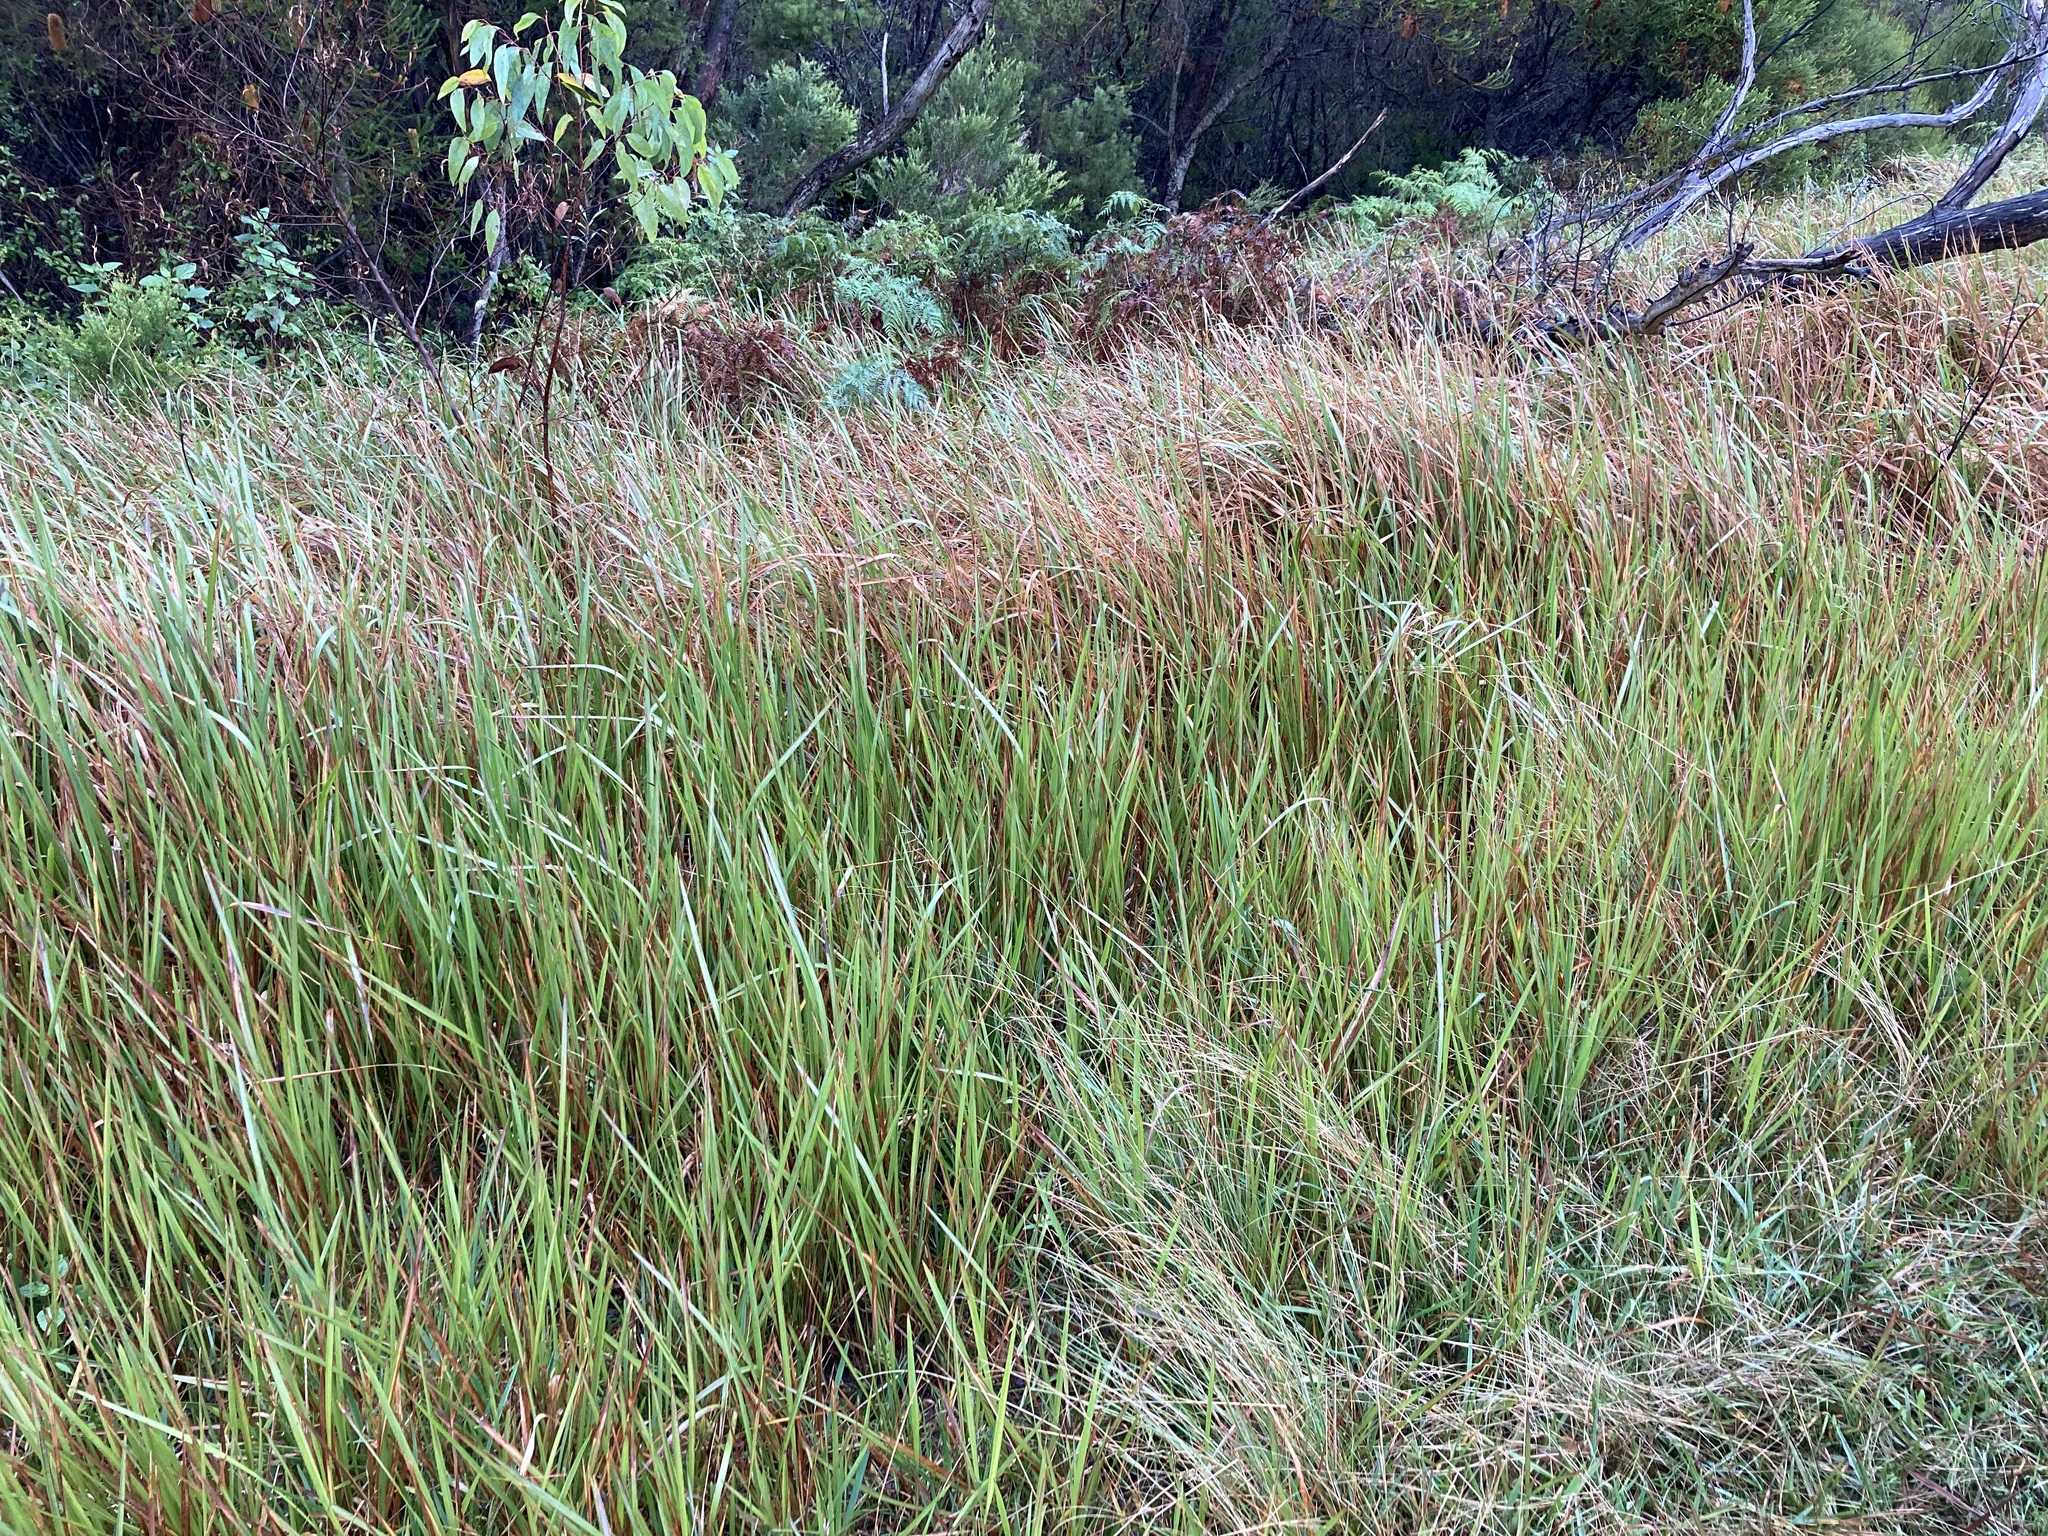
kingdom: Plantae
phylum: Tracheophyta
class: Liliopsida
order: Poales
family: Poaceae
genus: Imperata
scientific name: Imperata cylindrica
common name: Cogongrass
